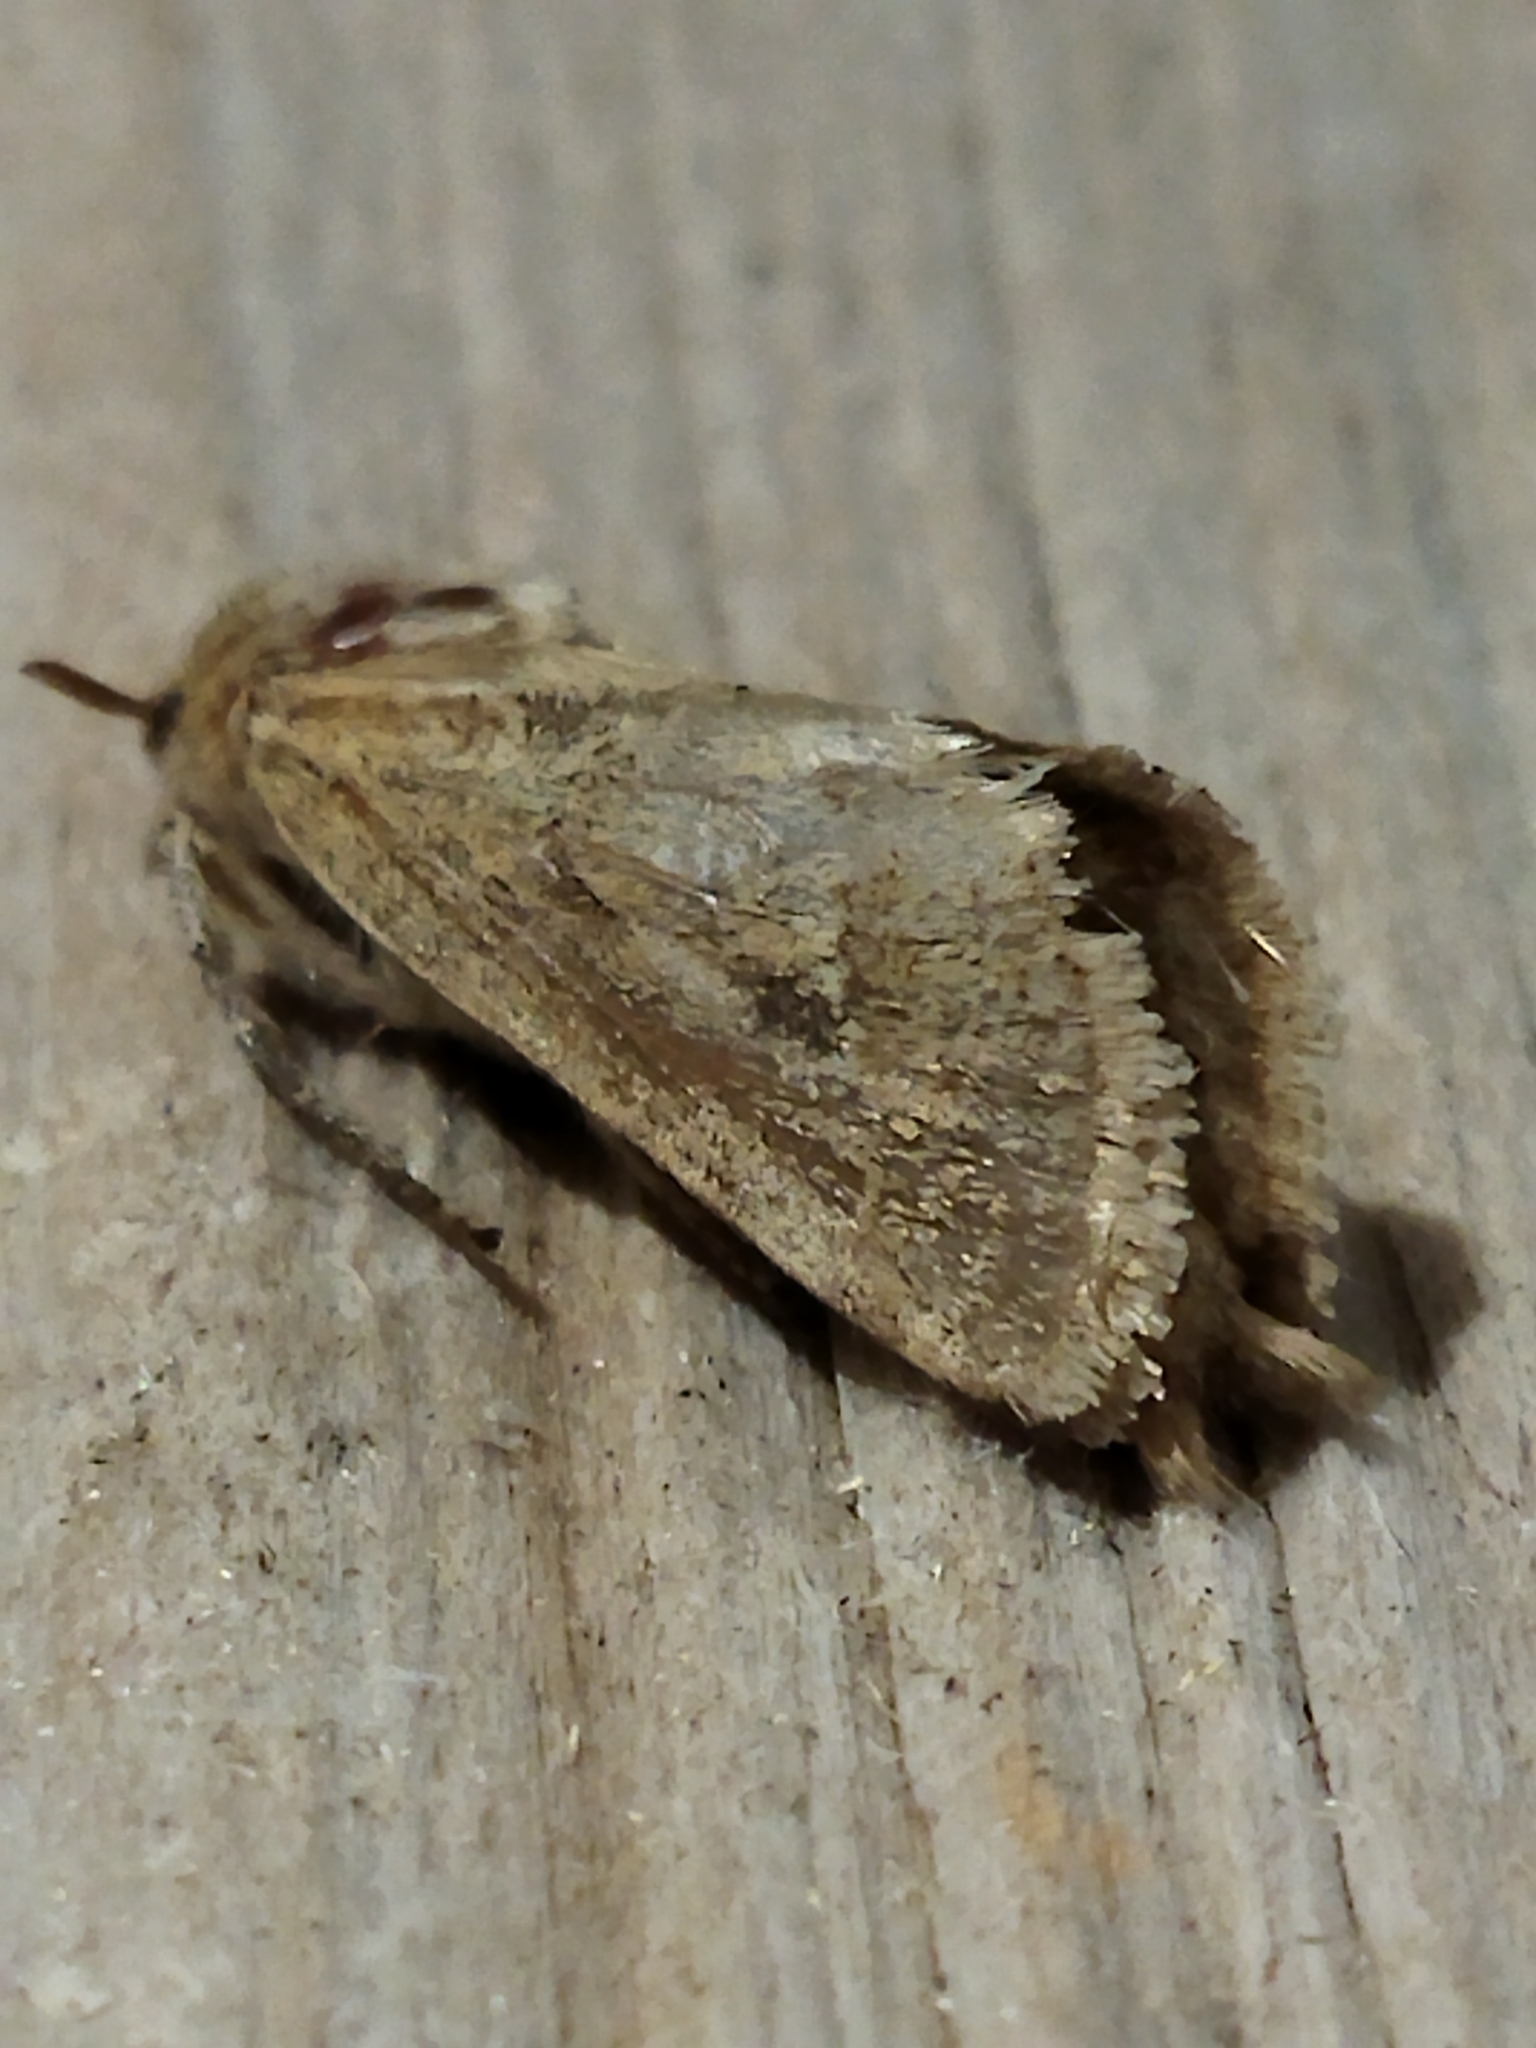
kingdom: Animalia
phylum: Arthropoda
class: Insecta
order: Lepidoptera
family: Hepialidae
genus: Triodia
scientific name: Triodia amasinus
